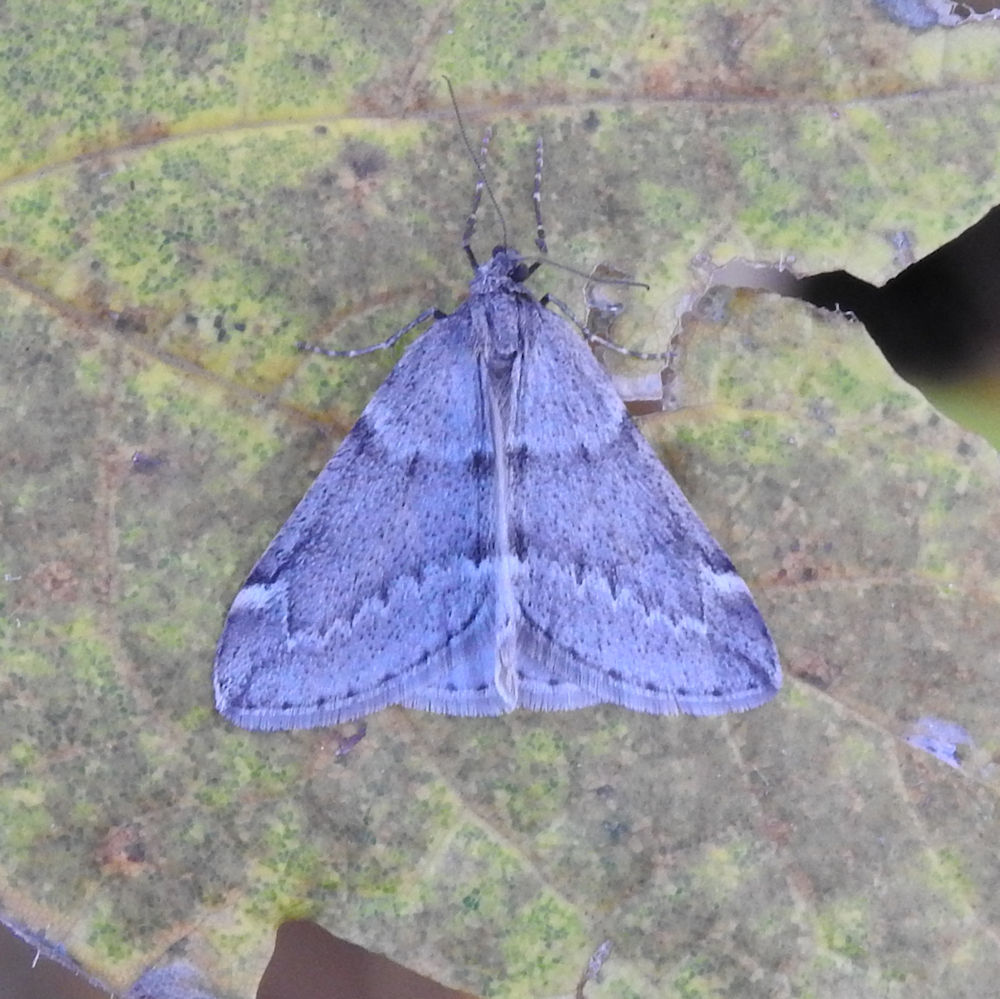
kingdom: Animalia
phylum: Arthropoda
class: Insecta
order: Lepidoptera
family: Geometridae
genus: Alsophila
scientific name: Alsophila pometaria
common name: Fall cankerworm
